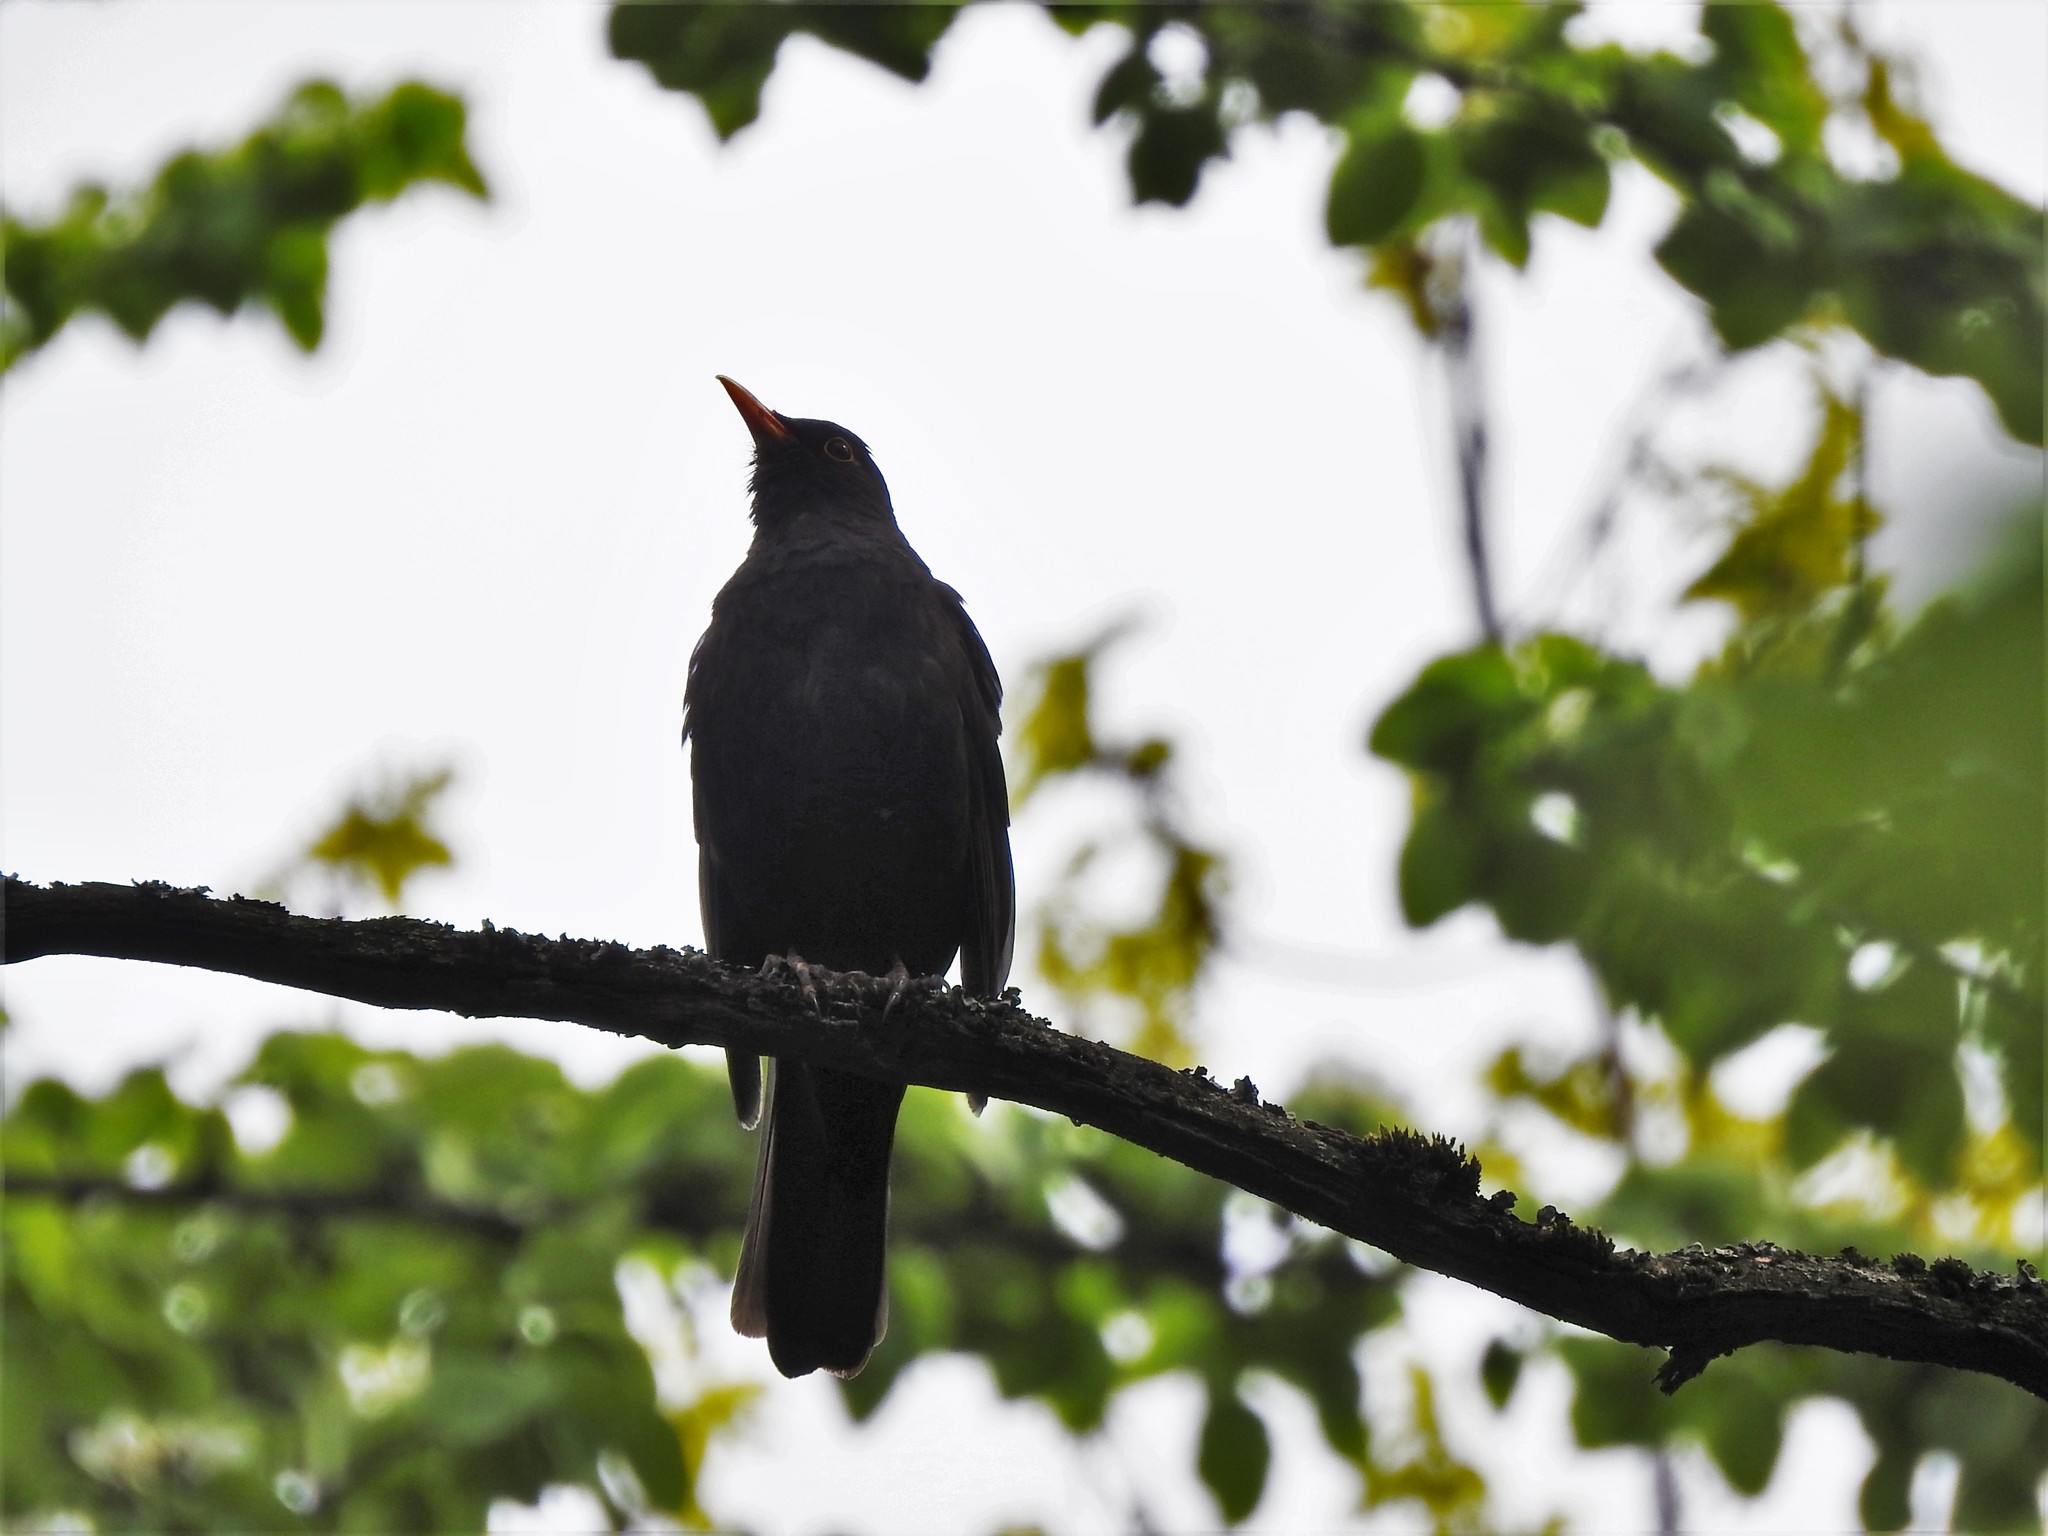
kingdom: Animalia
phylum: Chordata
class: Aves
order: Passeriformes
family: Turdidae
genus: Turdus
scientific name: Turdus merula
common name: Common blackbird
